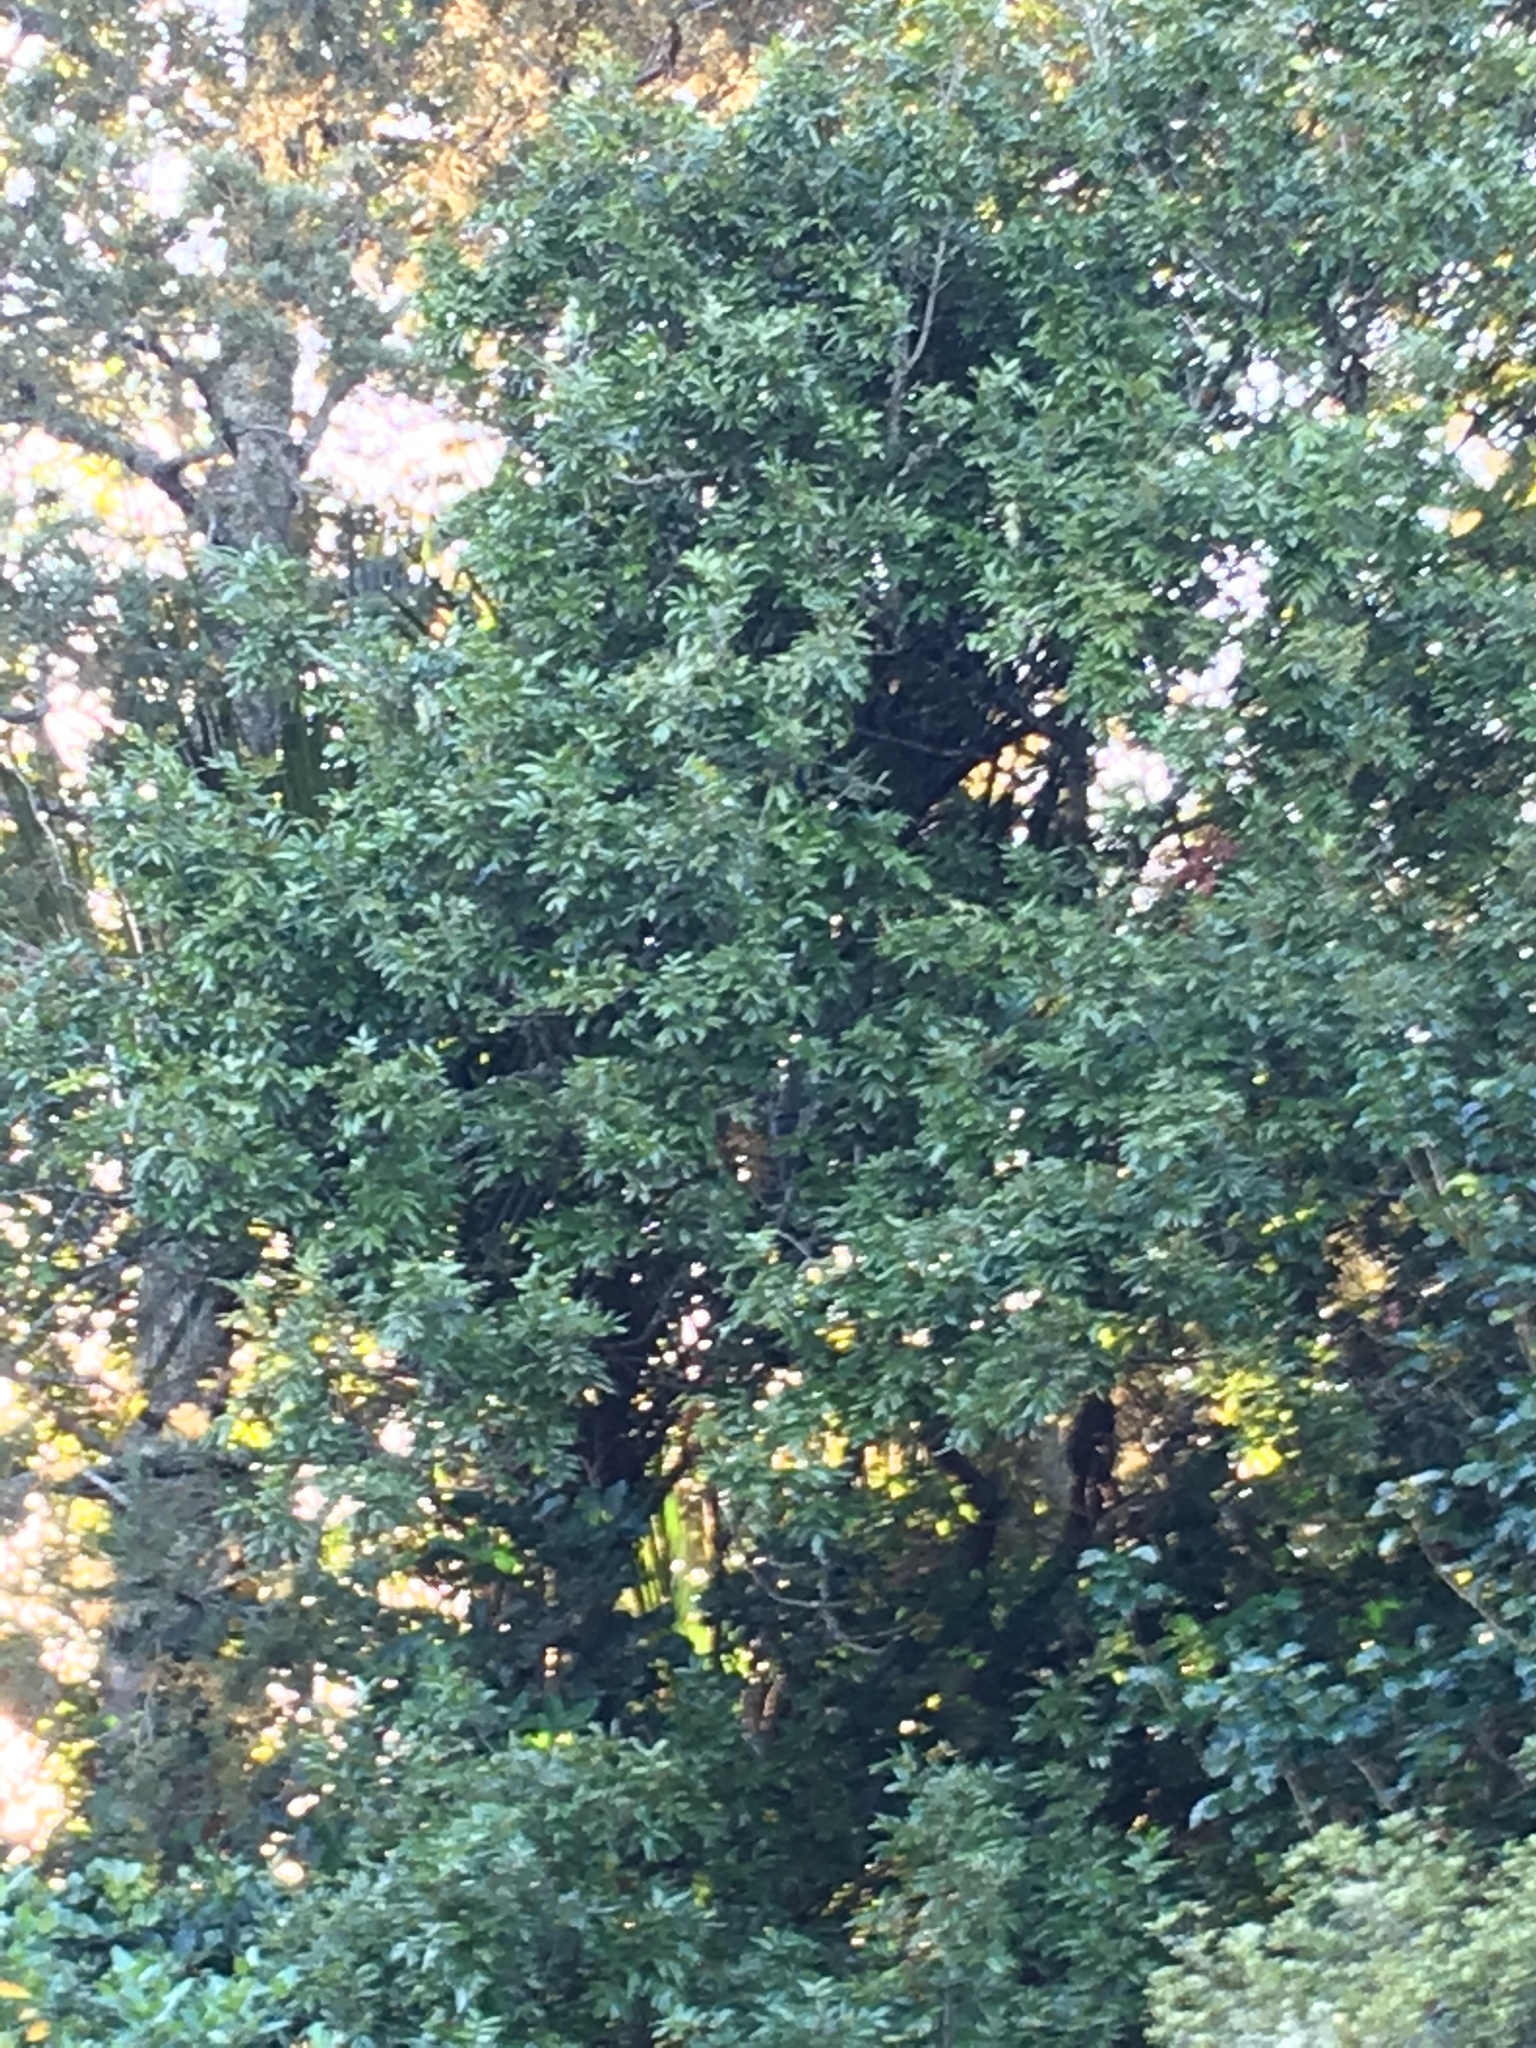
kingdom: Plantae
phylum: Tracheophyta
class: Magnoliopsida
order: Sapindales
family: Sapindaceae
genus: Alectryon
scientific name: Alectryon excelsus
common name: Three kings titoki
